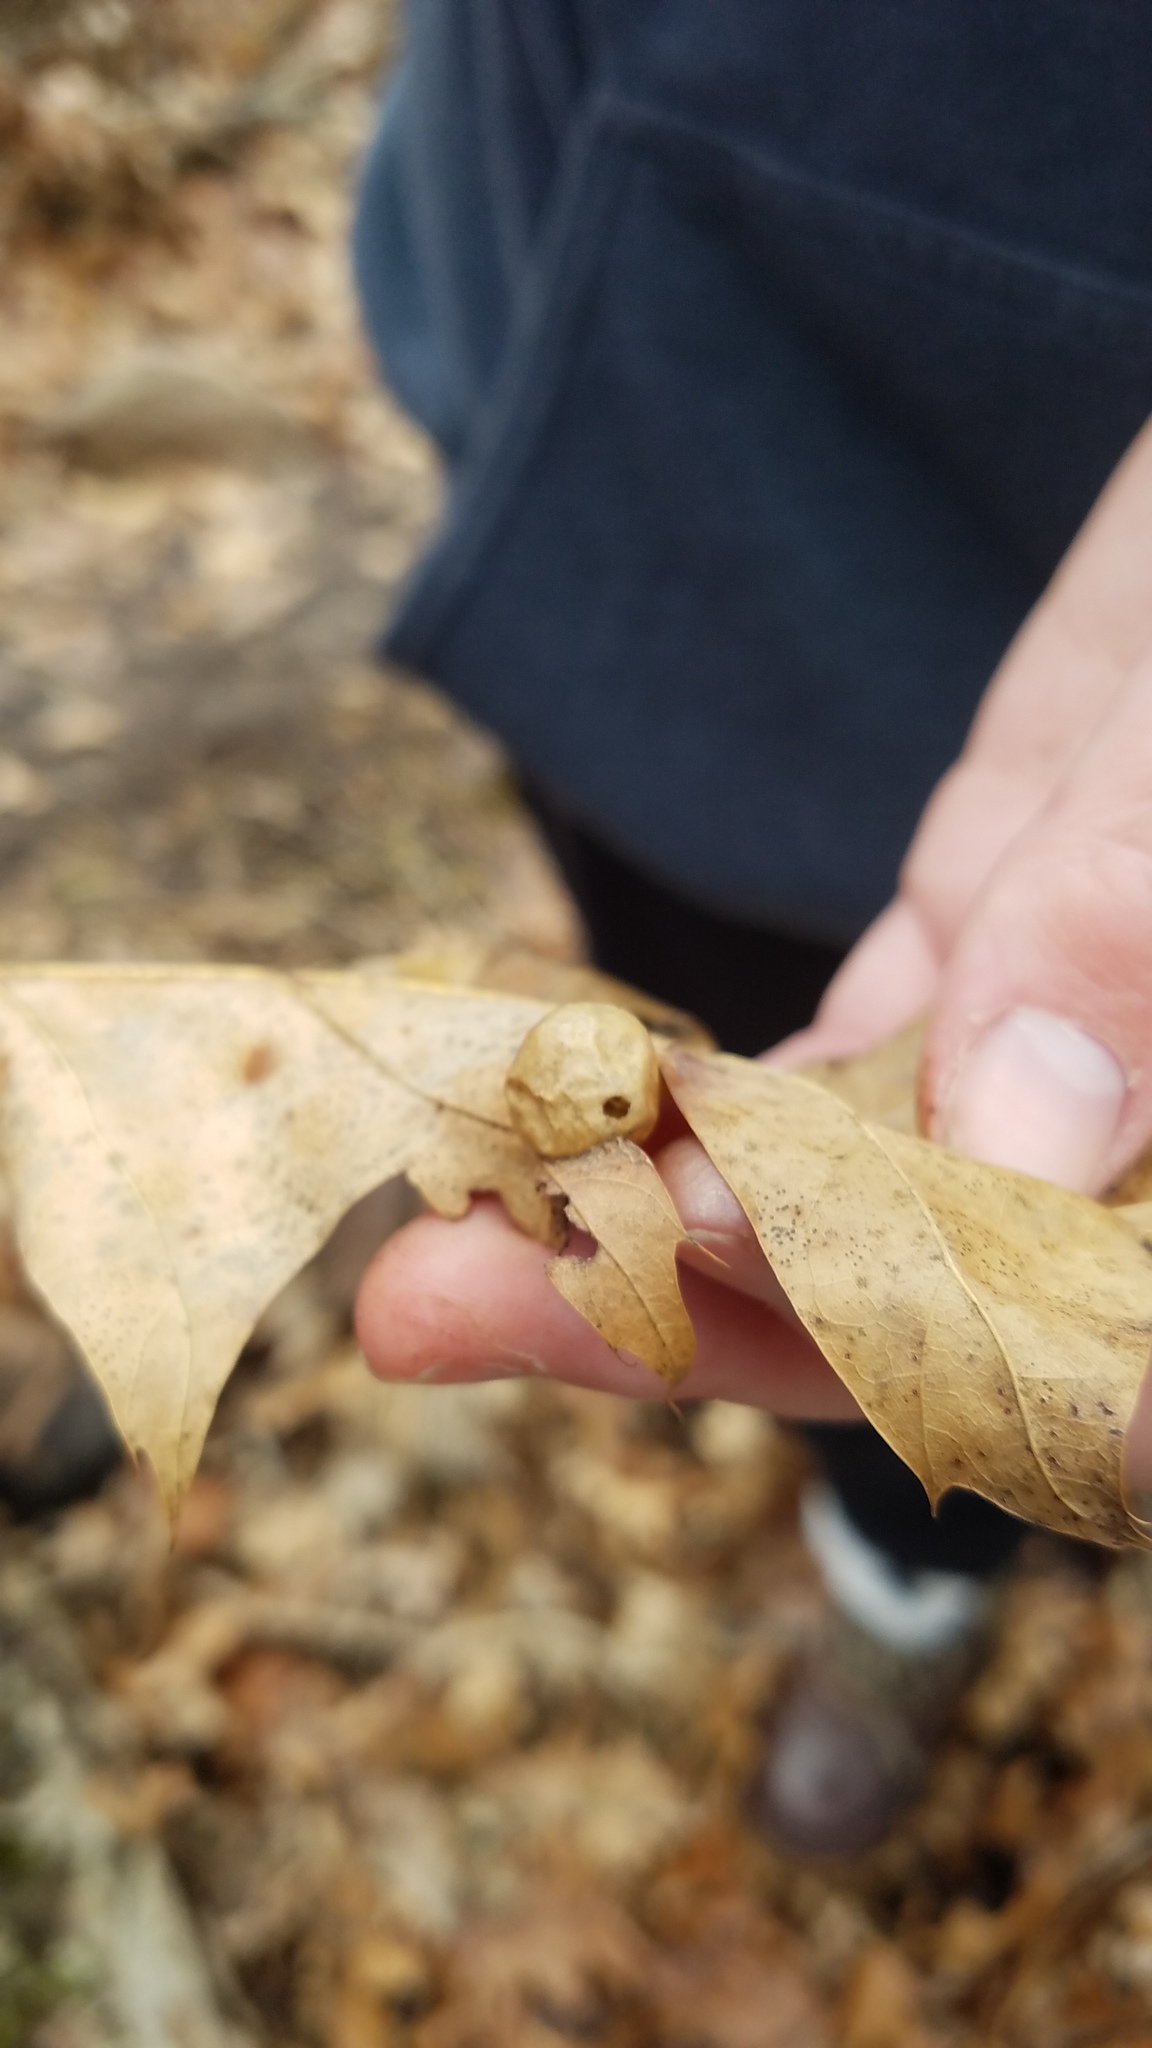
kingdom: Animalia
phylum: Arthropoda
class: Insecta
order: Hymenoptera
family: Cynipidae
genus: Amphibolips
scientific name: Amphibolips
